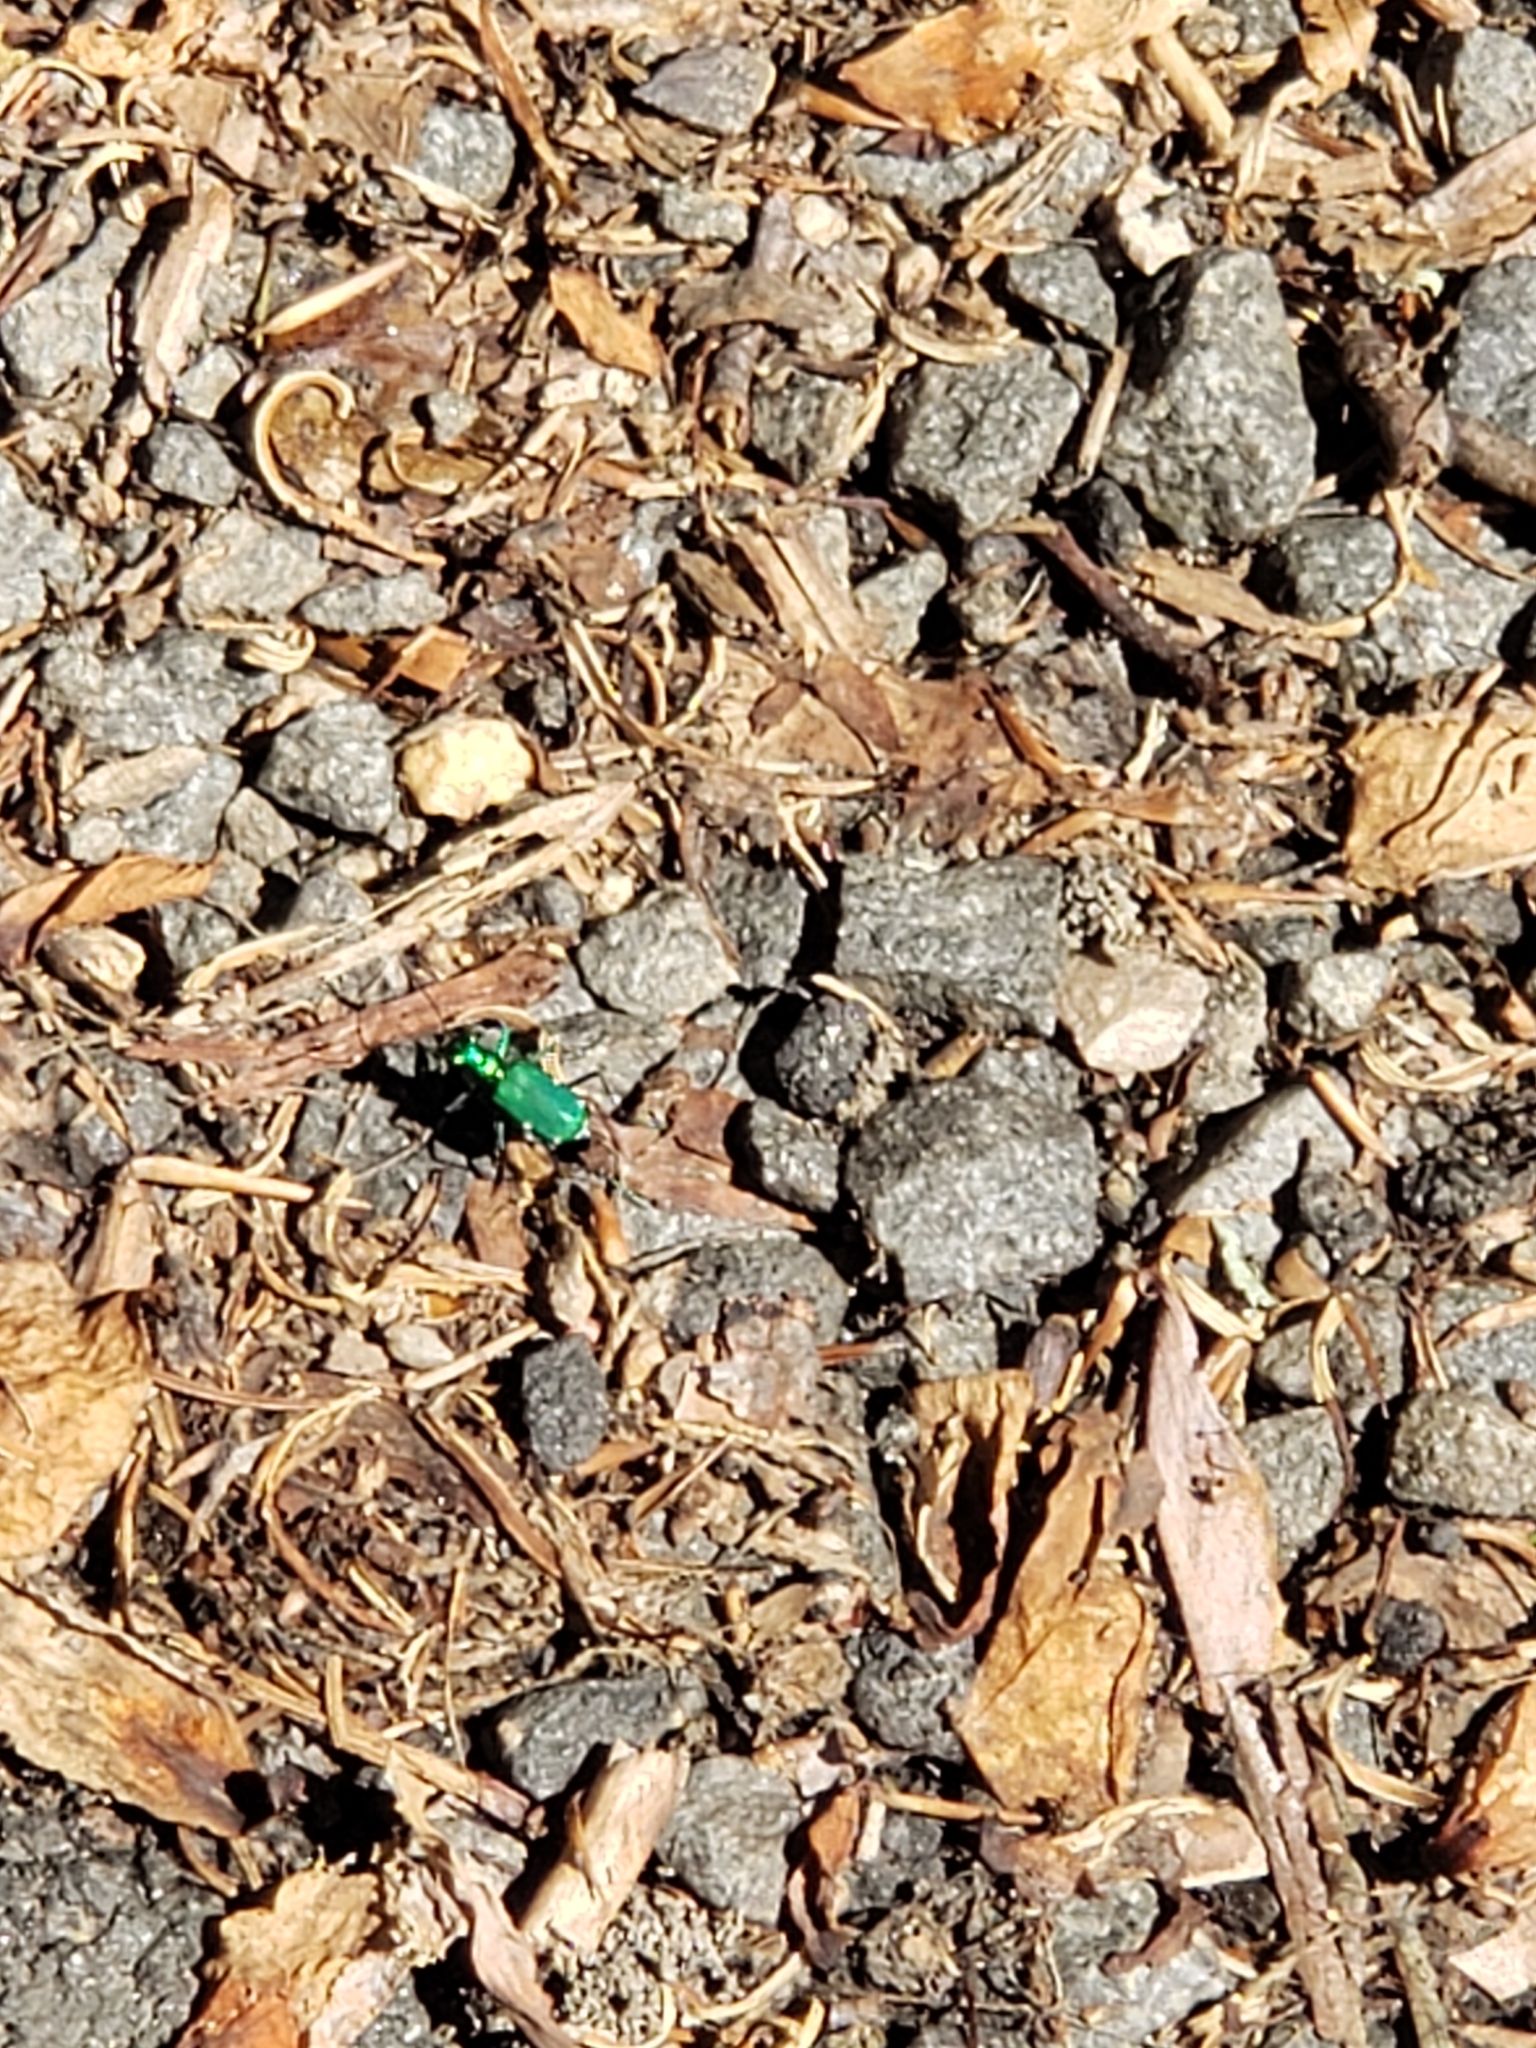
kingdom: Animalia
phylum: Arthropoda
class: Insecta
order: Coleoptera
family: Carabidae
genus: Cicindela
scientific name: Cicindela sexguttata
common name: Six-spotted tiger beetle
